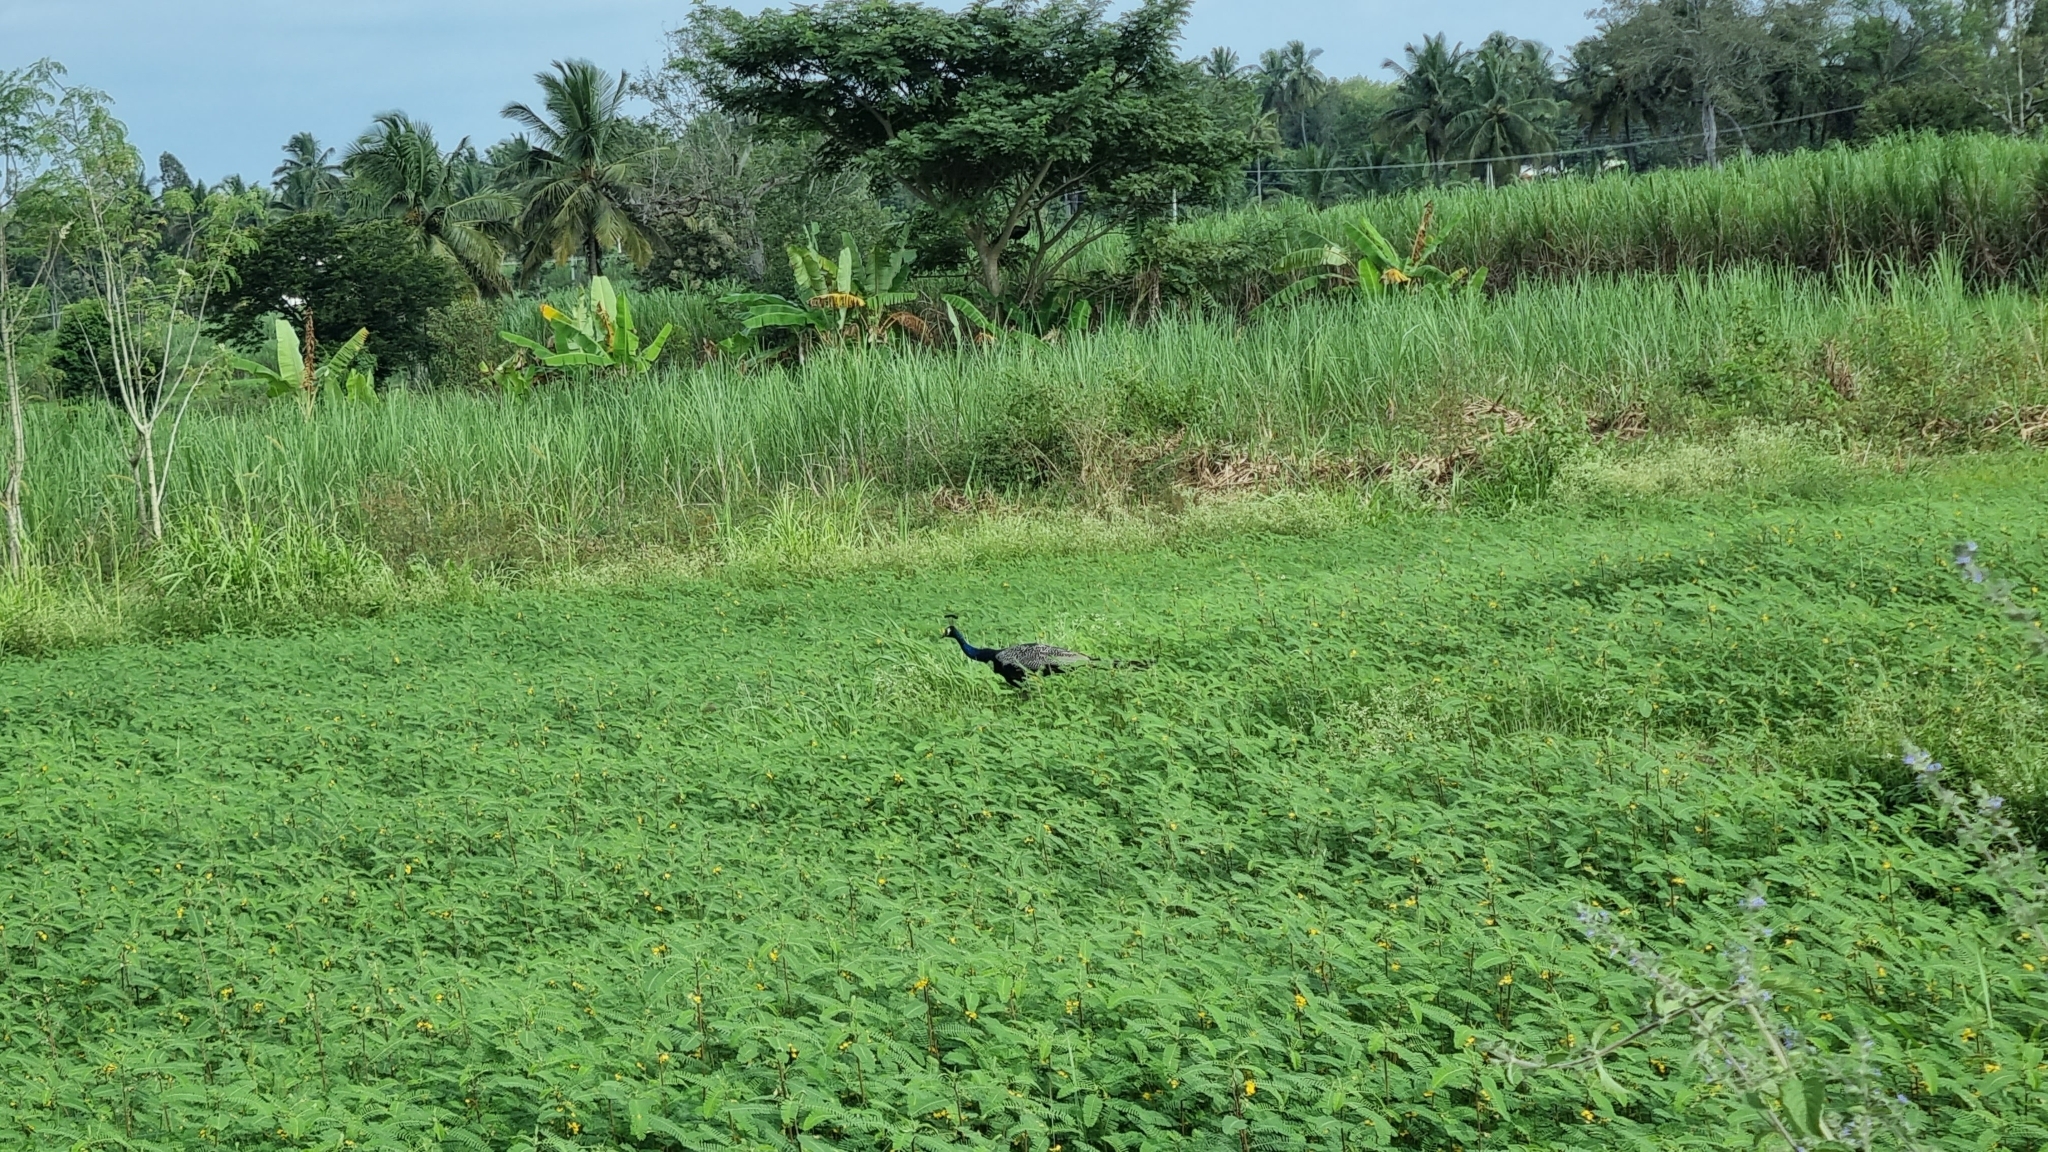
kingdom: Animalia
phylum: Chordata
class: Aves
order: Galliformes
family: Phasianidae
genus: Pavo
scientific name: Pavo cristatus
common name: Indian peafowl
